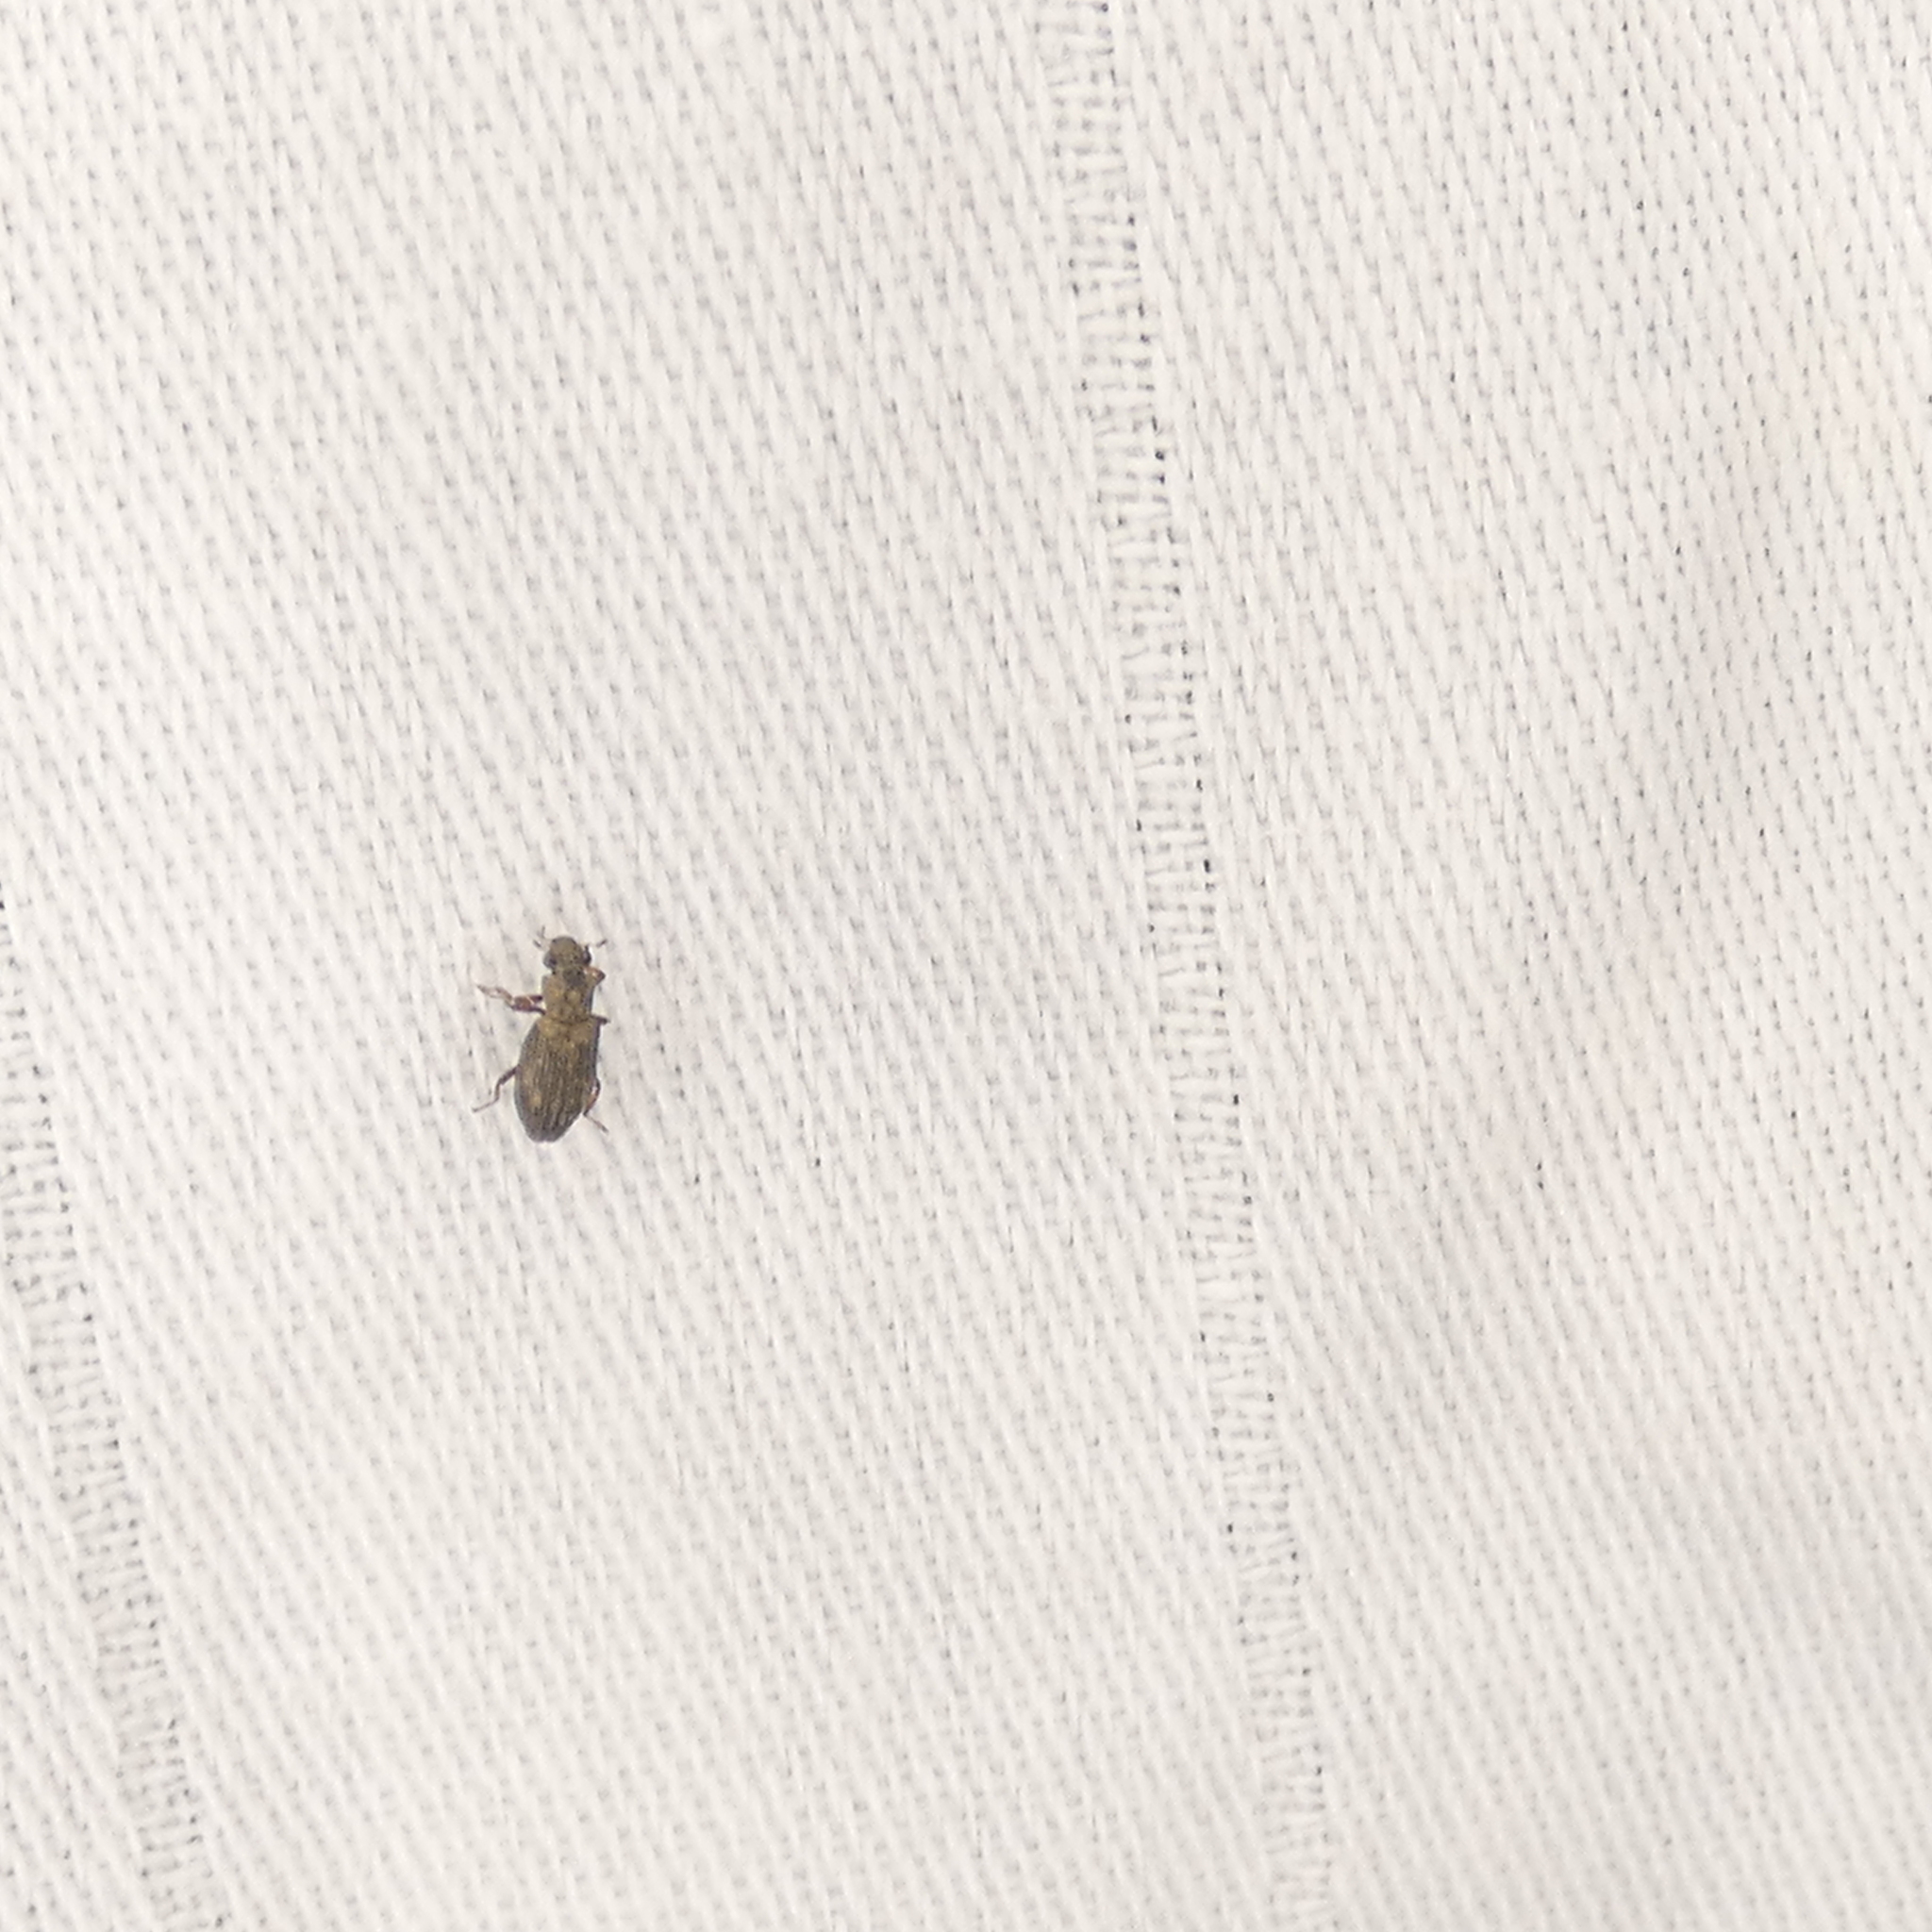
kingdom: Animalia
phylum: Arthropoda
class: Insecta
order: Coleoptera
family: Hydrochidae
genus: Hydrochus
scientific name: Hydrochus
